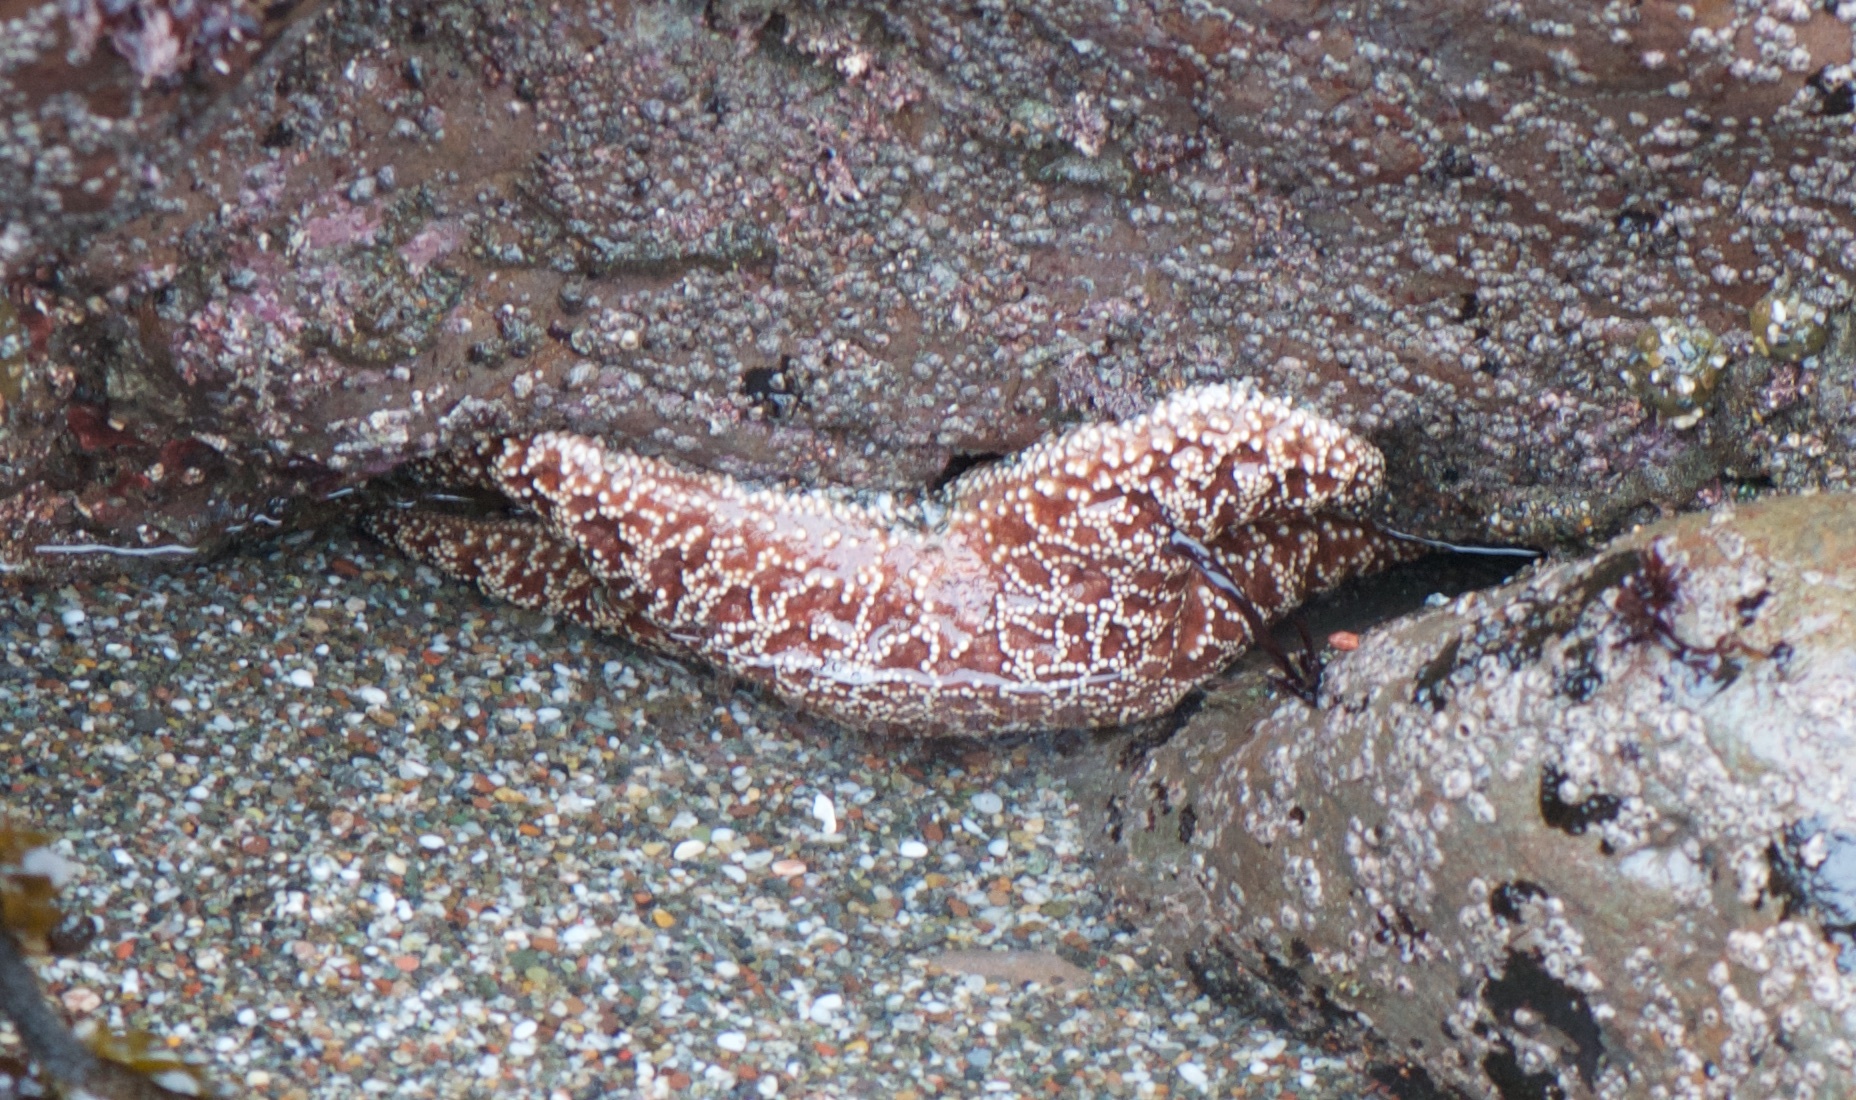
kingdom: Animalia
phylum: Echinodermata
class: Asteroidea
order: Forcipulatida
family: Asteriidae
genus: Pisaster
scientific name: Pisaster ochraceus
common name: Ochre stars
